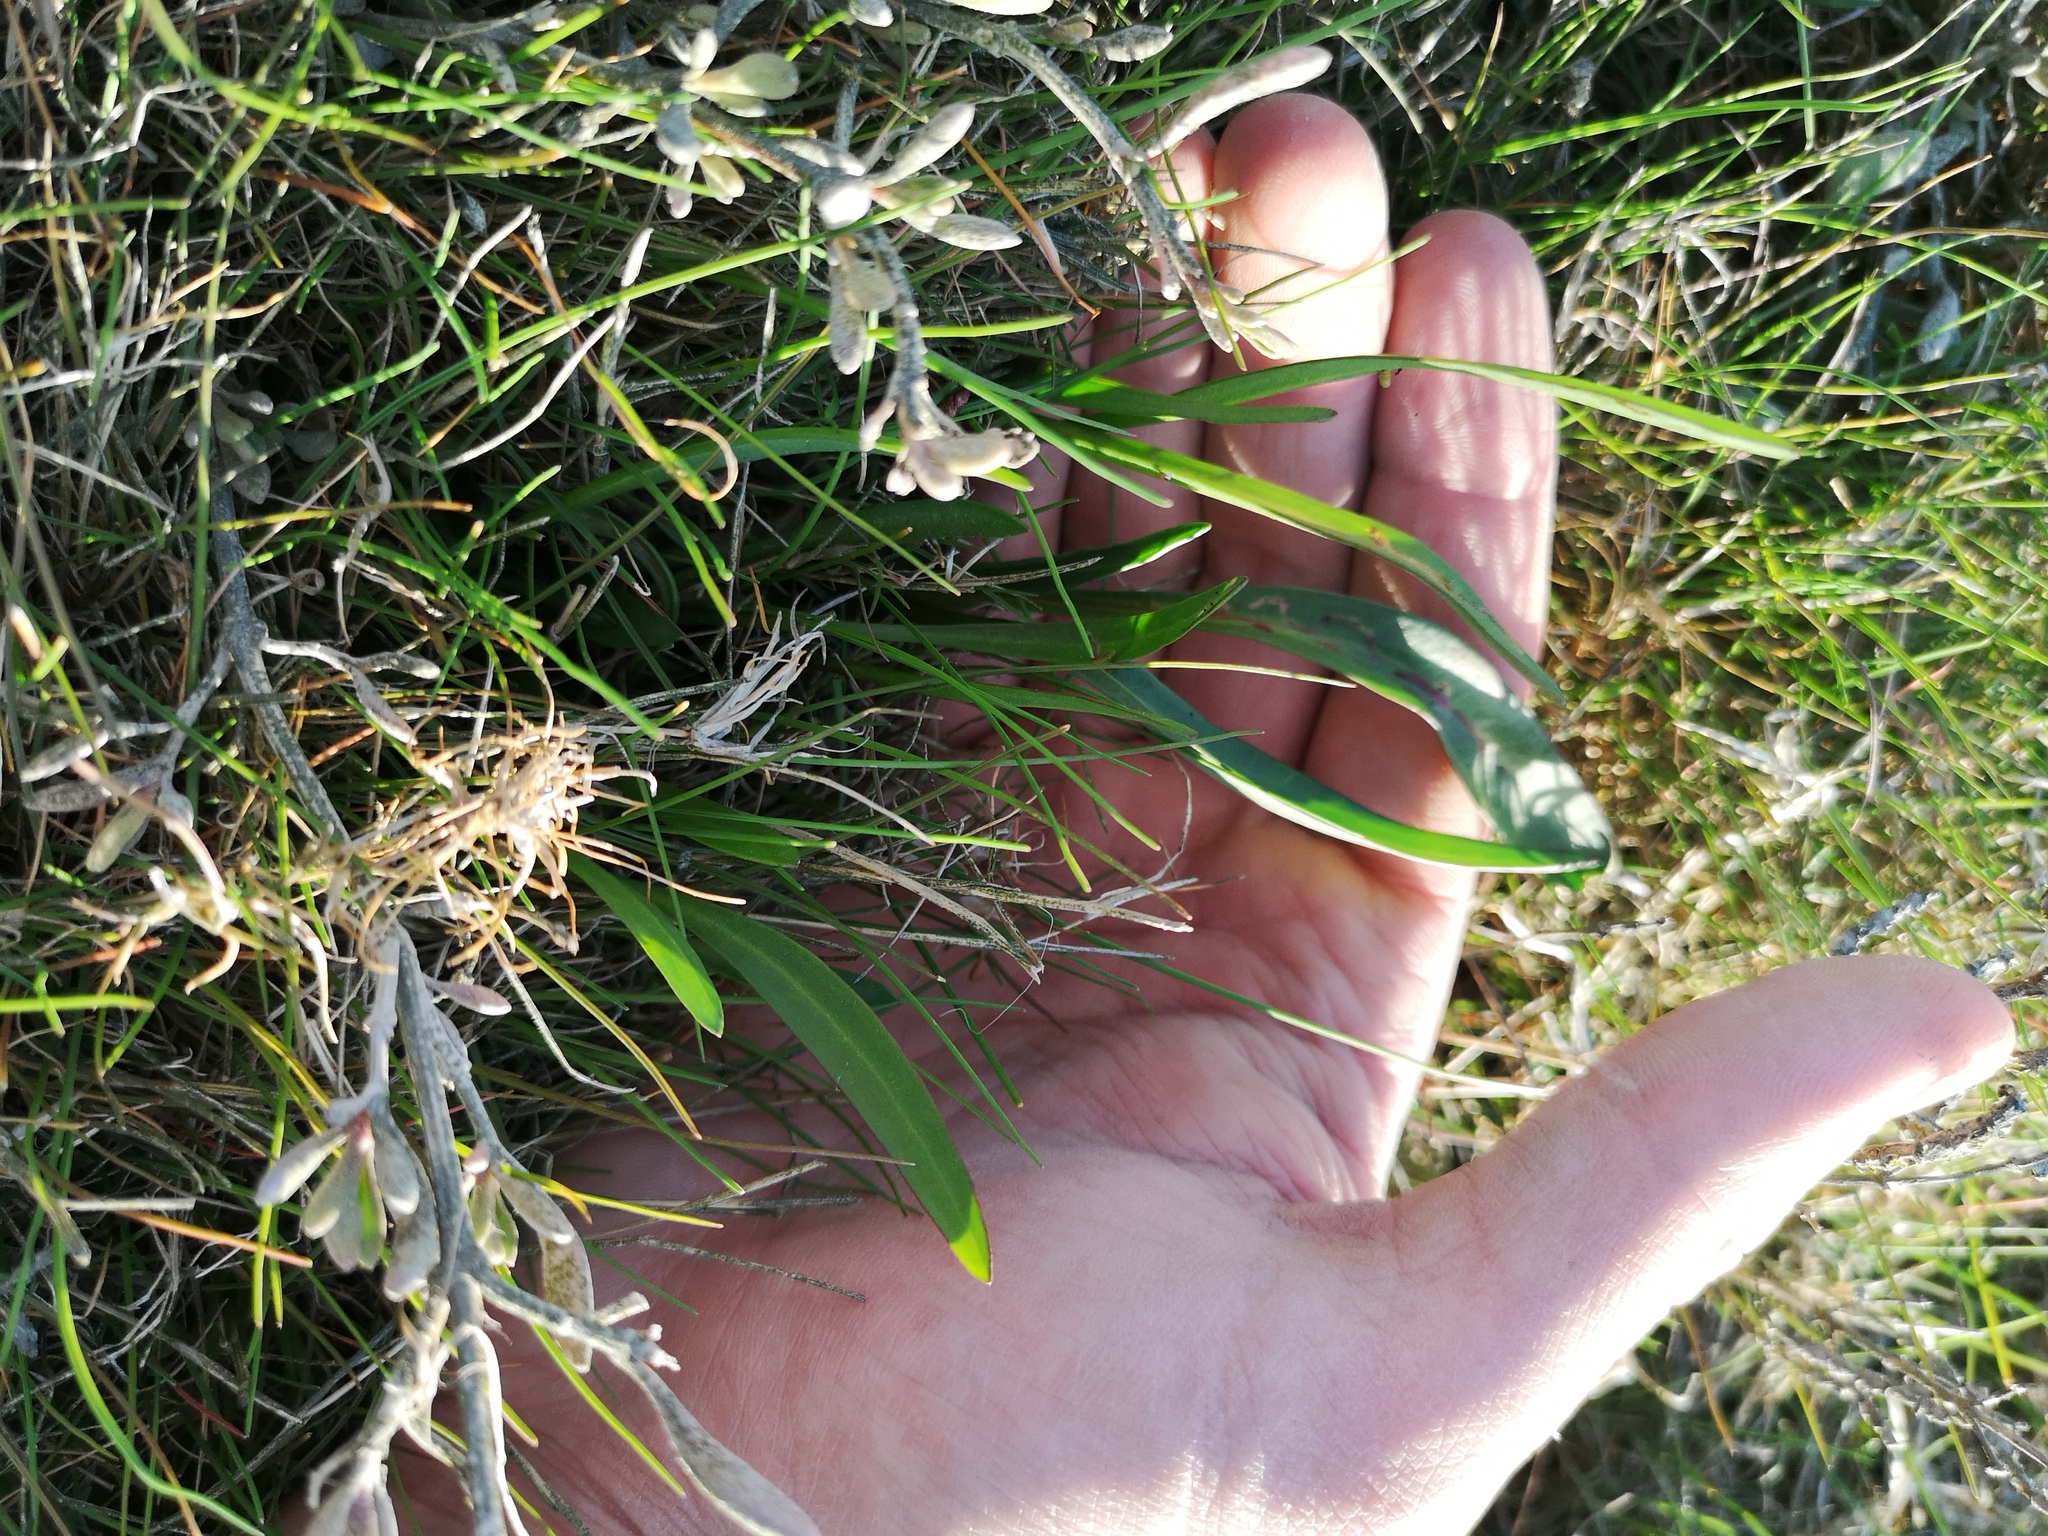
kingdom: Plantae
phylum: Tracheophyta
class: Magnoliopsida
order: Caryophyllales
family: Amaranthaceae
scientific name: Amaranthaceae
